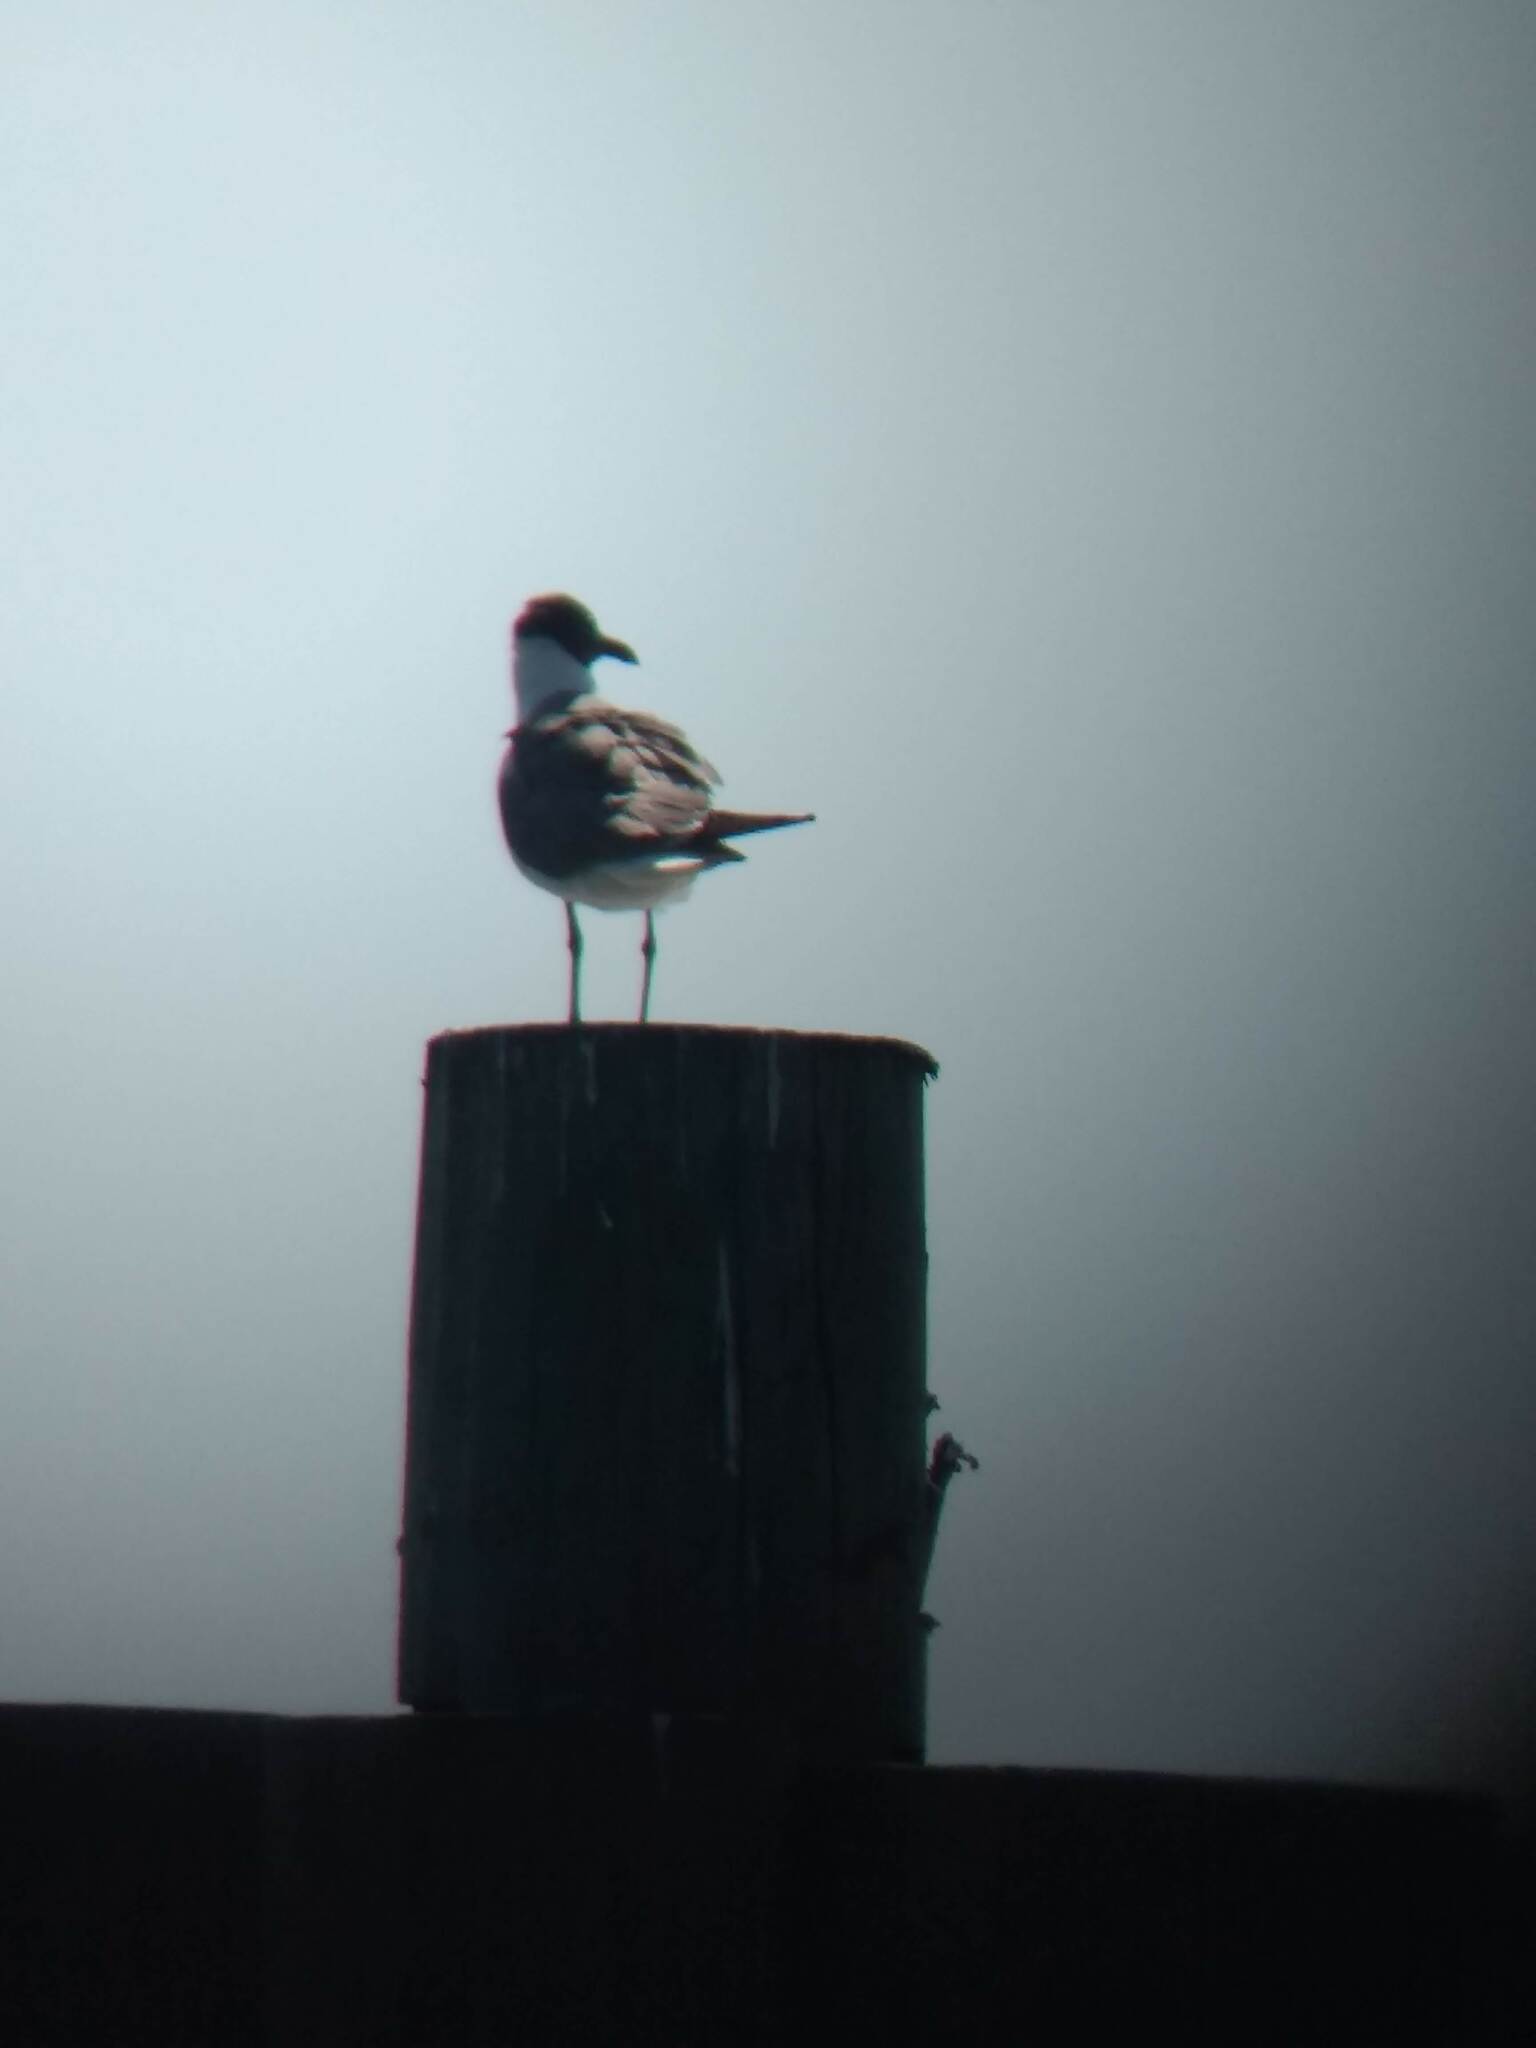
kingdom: Animalia
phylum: Chordata
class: Aves
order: Charadriiformes
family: Laridae
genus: Leucophaeus
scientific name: Leucophaeus atricilla
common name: Laughing gull
